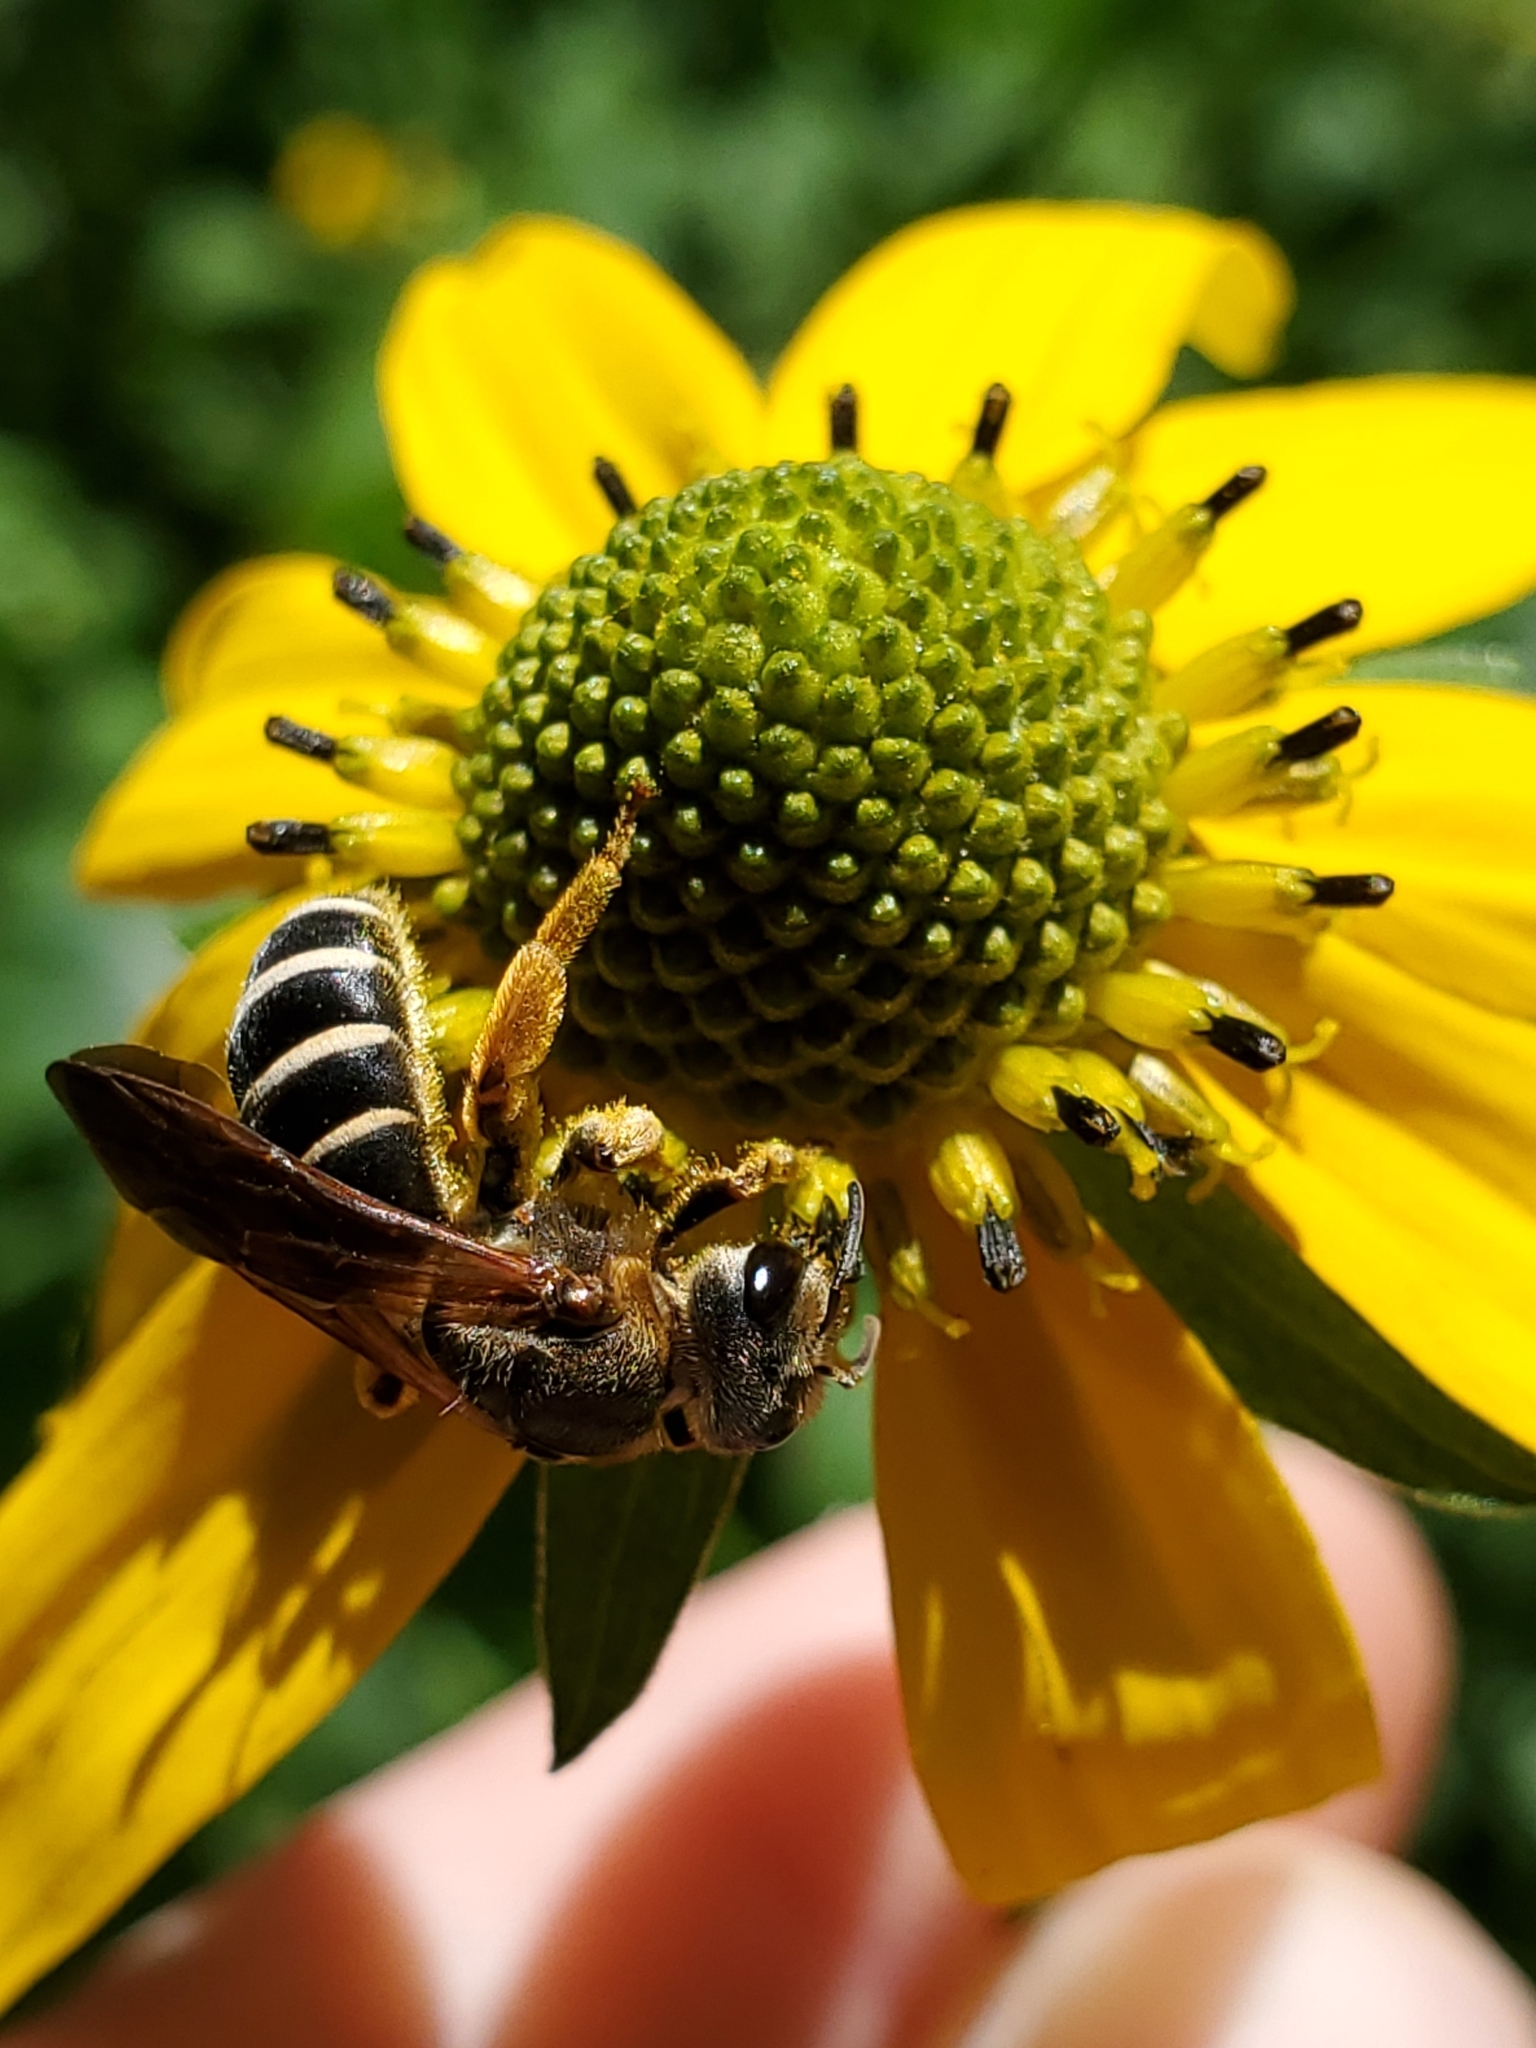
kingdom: Animalia
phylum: Arthropoda
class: Insecta
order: Hymenoptera
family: Halictidae
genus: Halictus
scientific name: Halictus parallelus
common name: Parallel-striped sweat bee
